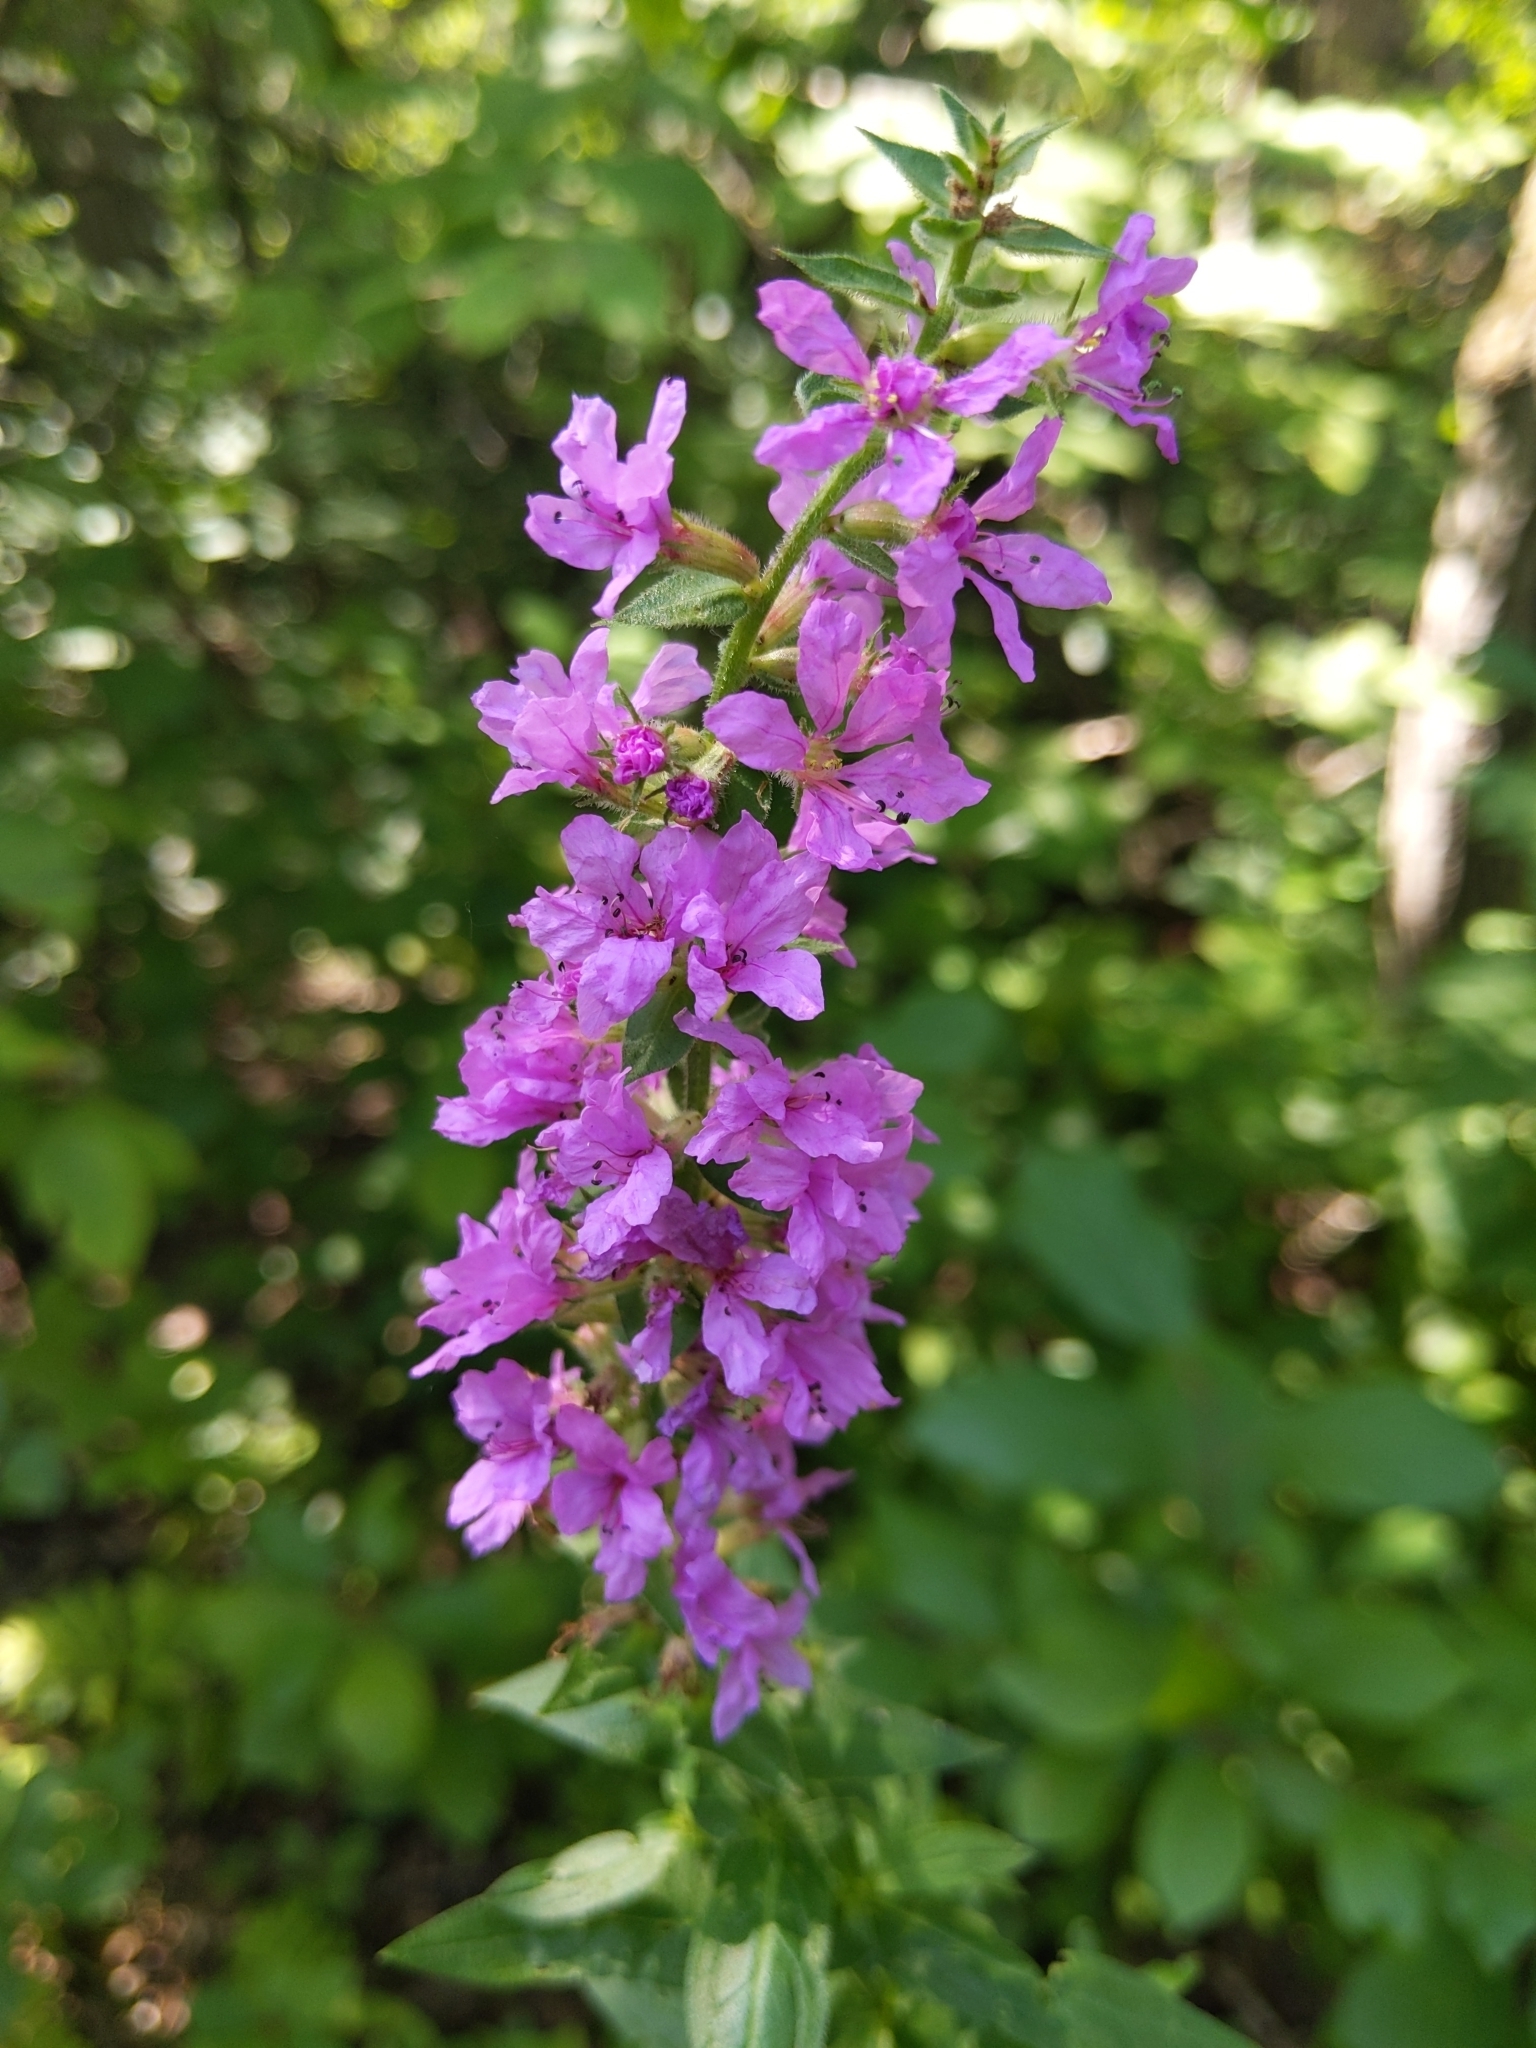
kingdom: Plantae
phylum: Tracheophyta
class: Magnoliopsida
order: Myrtales
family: Lythraceae
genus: Lythrum
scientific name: Lythrum salicaria
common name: Purple loosestrife
